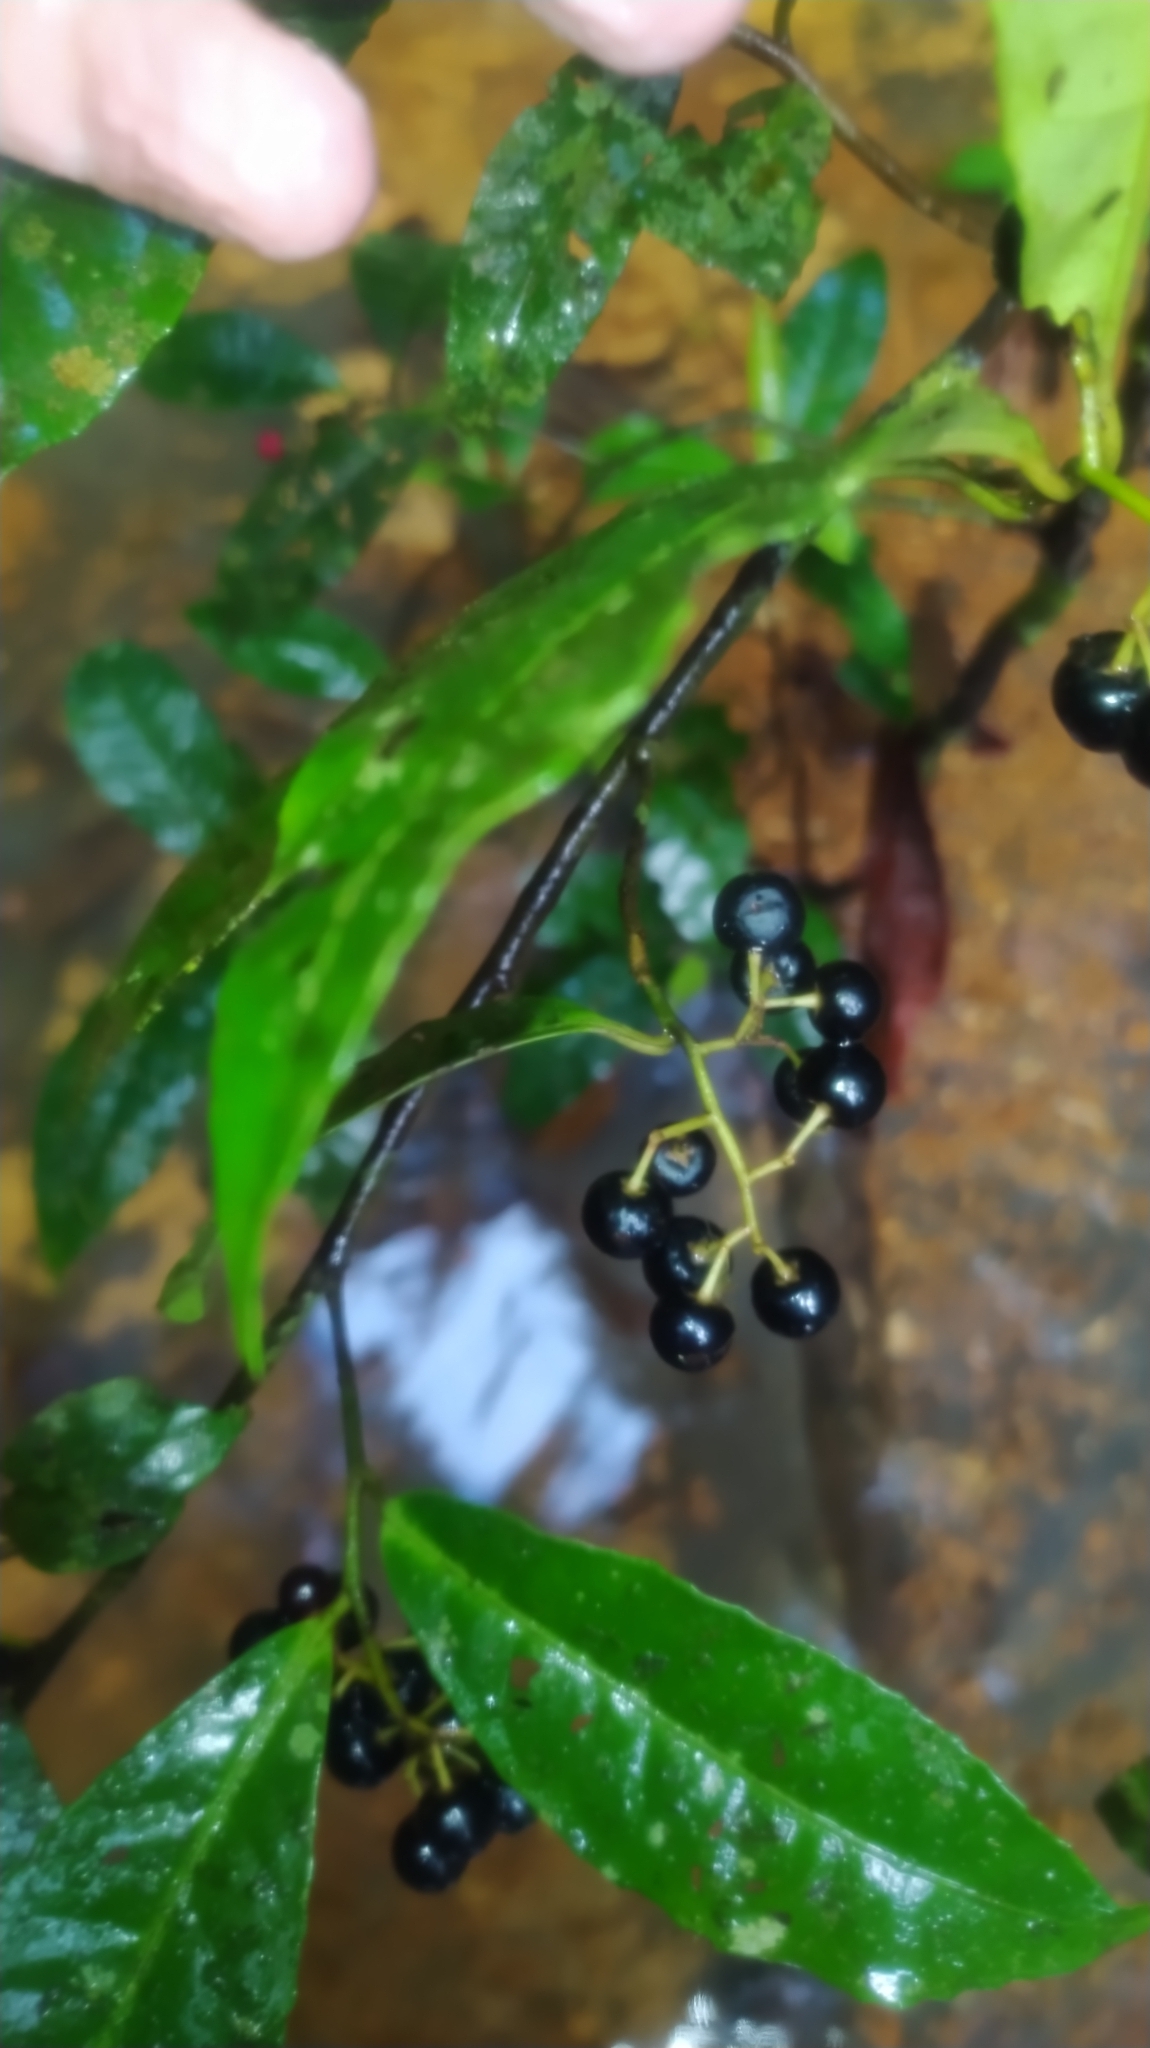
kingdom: Plantae
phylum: Tracheophyta
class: Magnoliopsida
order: Ericales
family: Primulaceae
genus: Ardisia
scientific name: Ardisia guianensis
